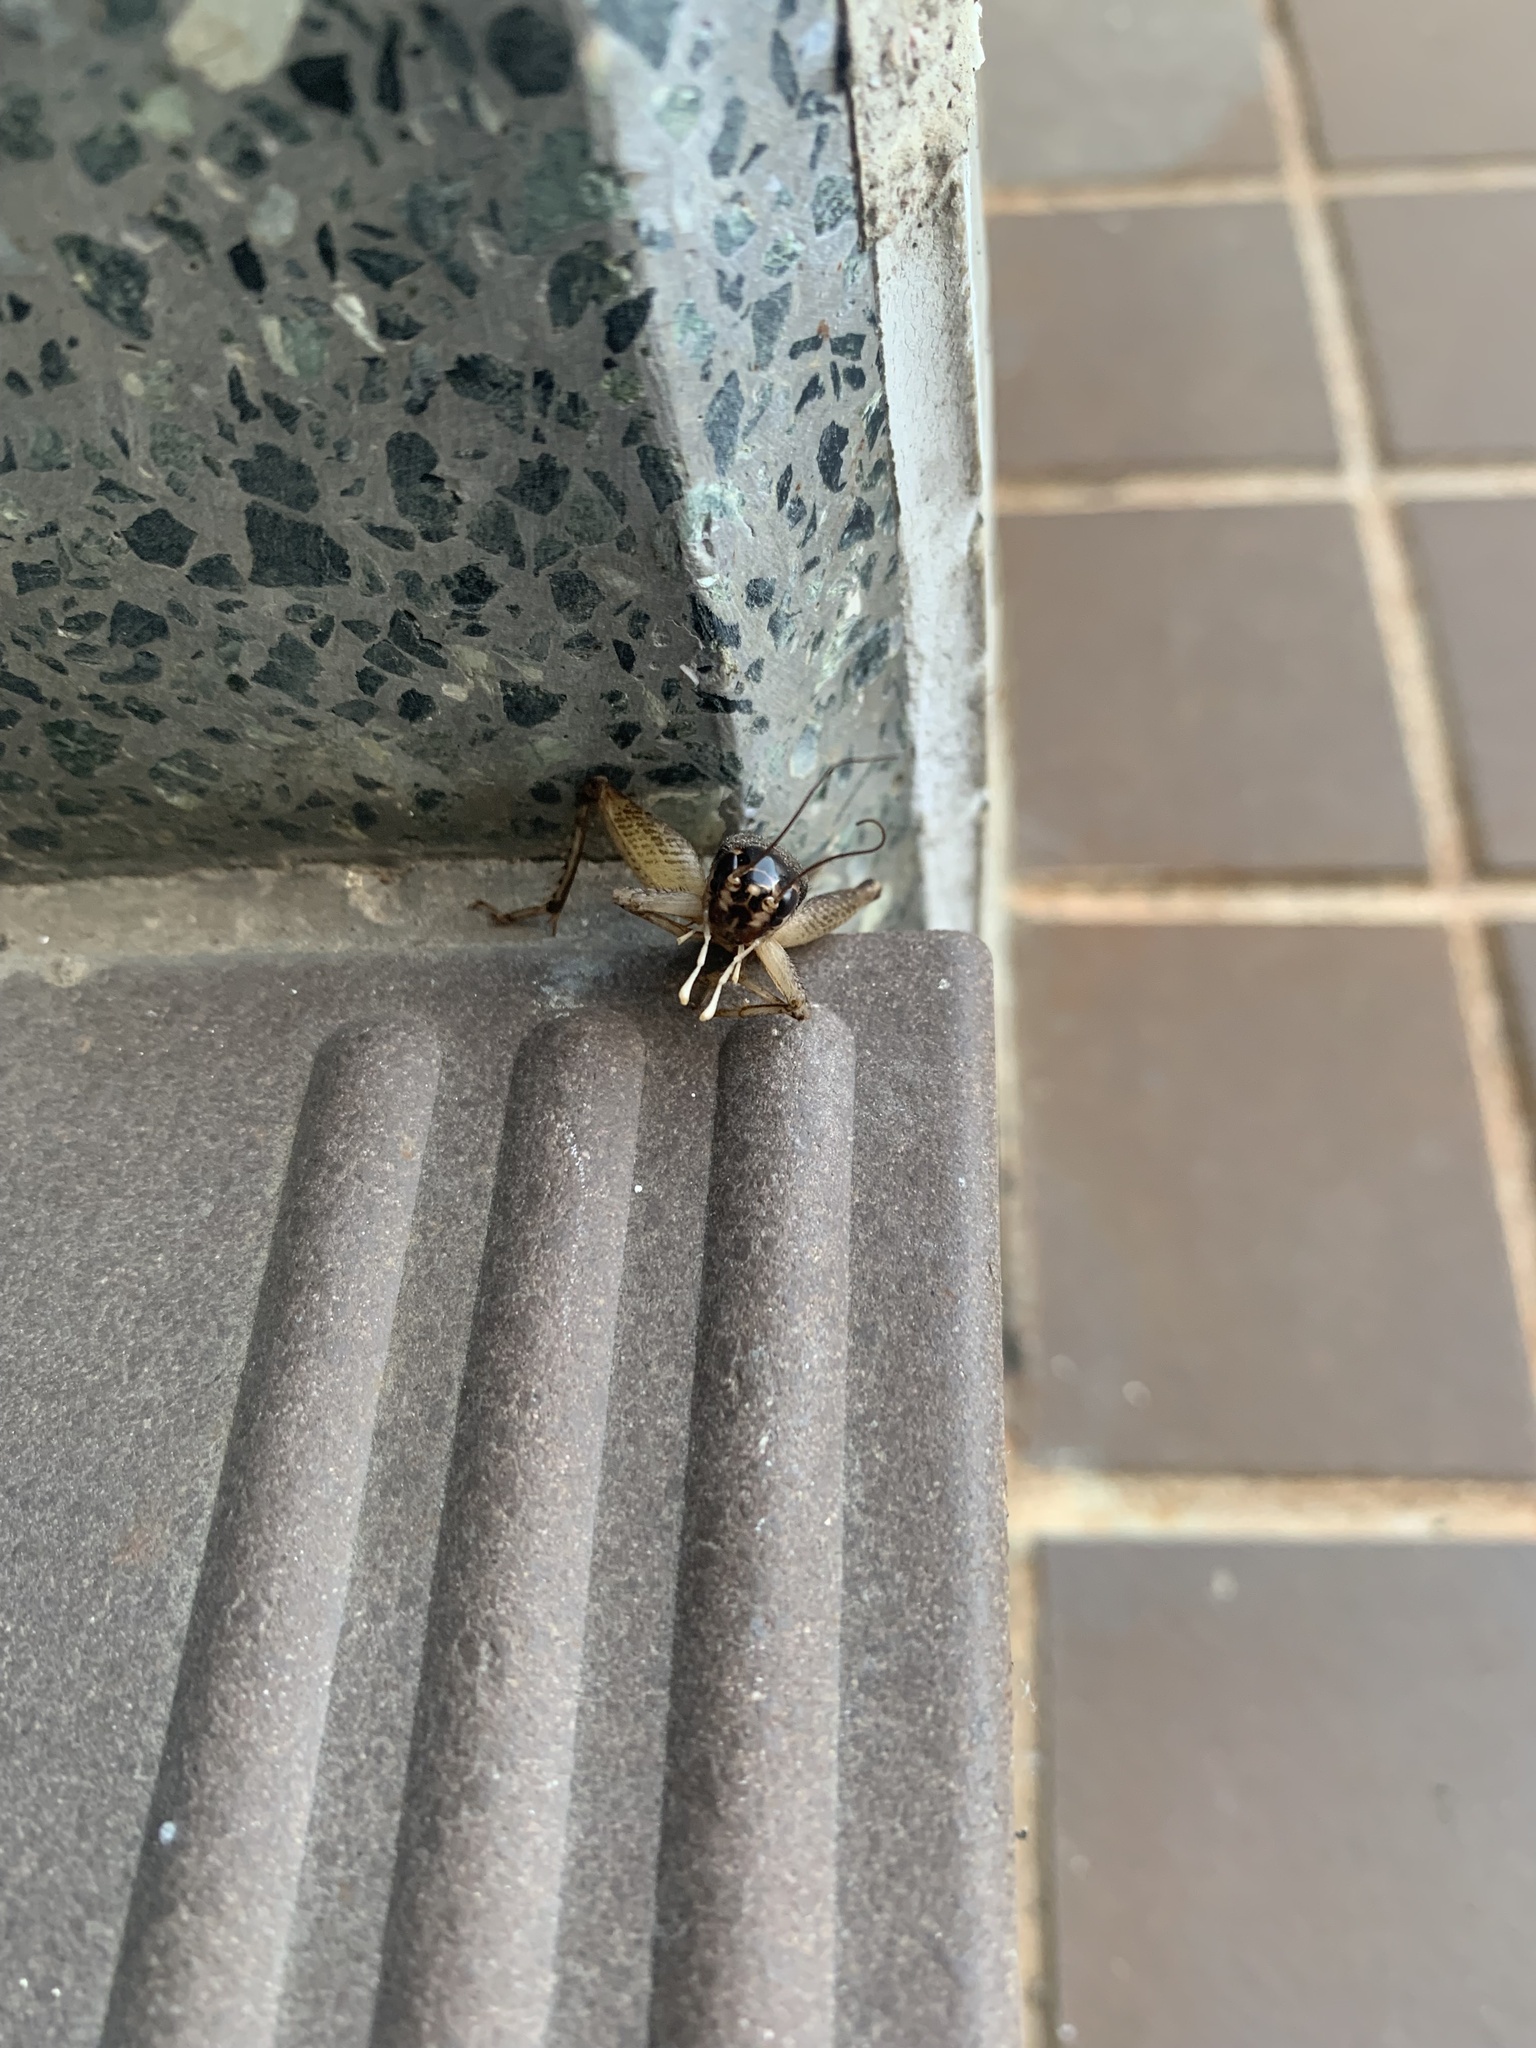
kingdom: Animalia
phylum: Arthropoda
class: Insecta
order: Orthoptera
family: Gryllidae
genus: Velarifictorus
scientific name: Velarifictorus micado
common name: Japanese burrowing cricket
